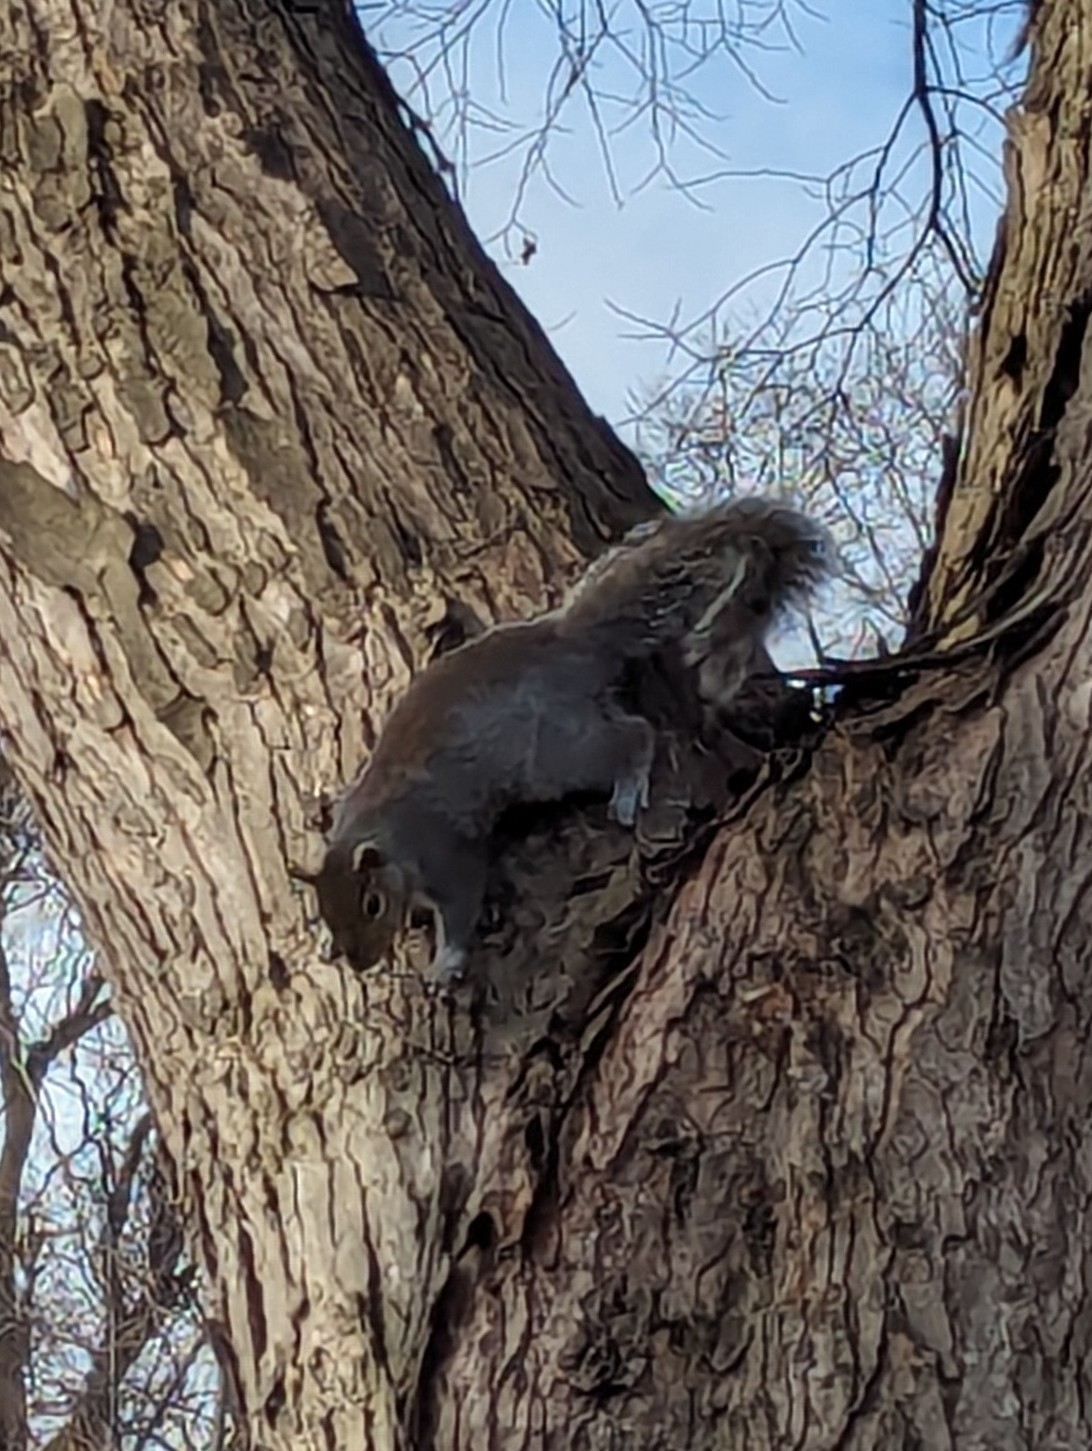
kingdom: Animalia
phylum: Chordata
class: Mammalia
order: Rodentia
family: Sciuridae
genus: Sciurus
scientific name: Sciurus carolinensis
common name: Eastern gray squirrel
